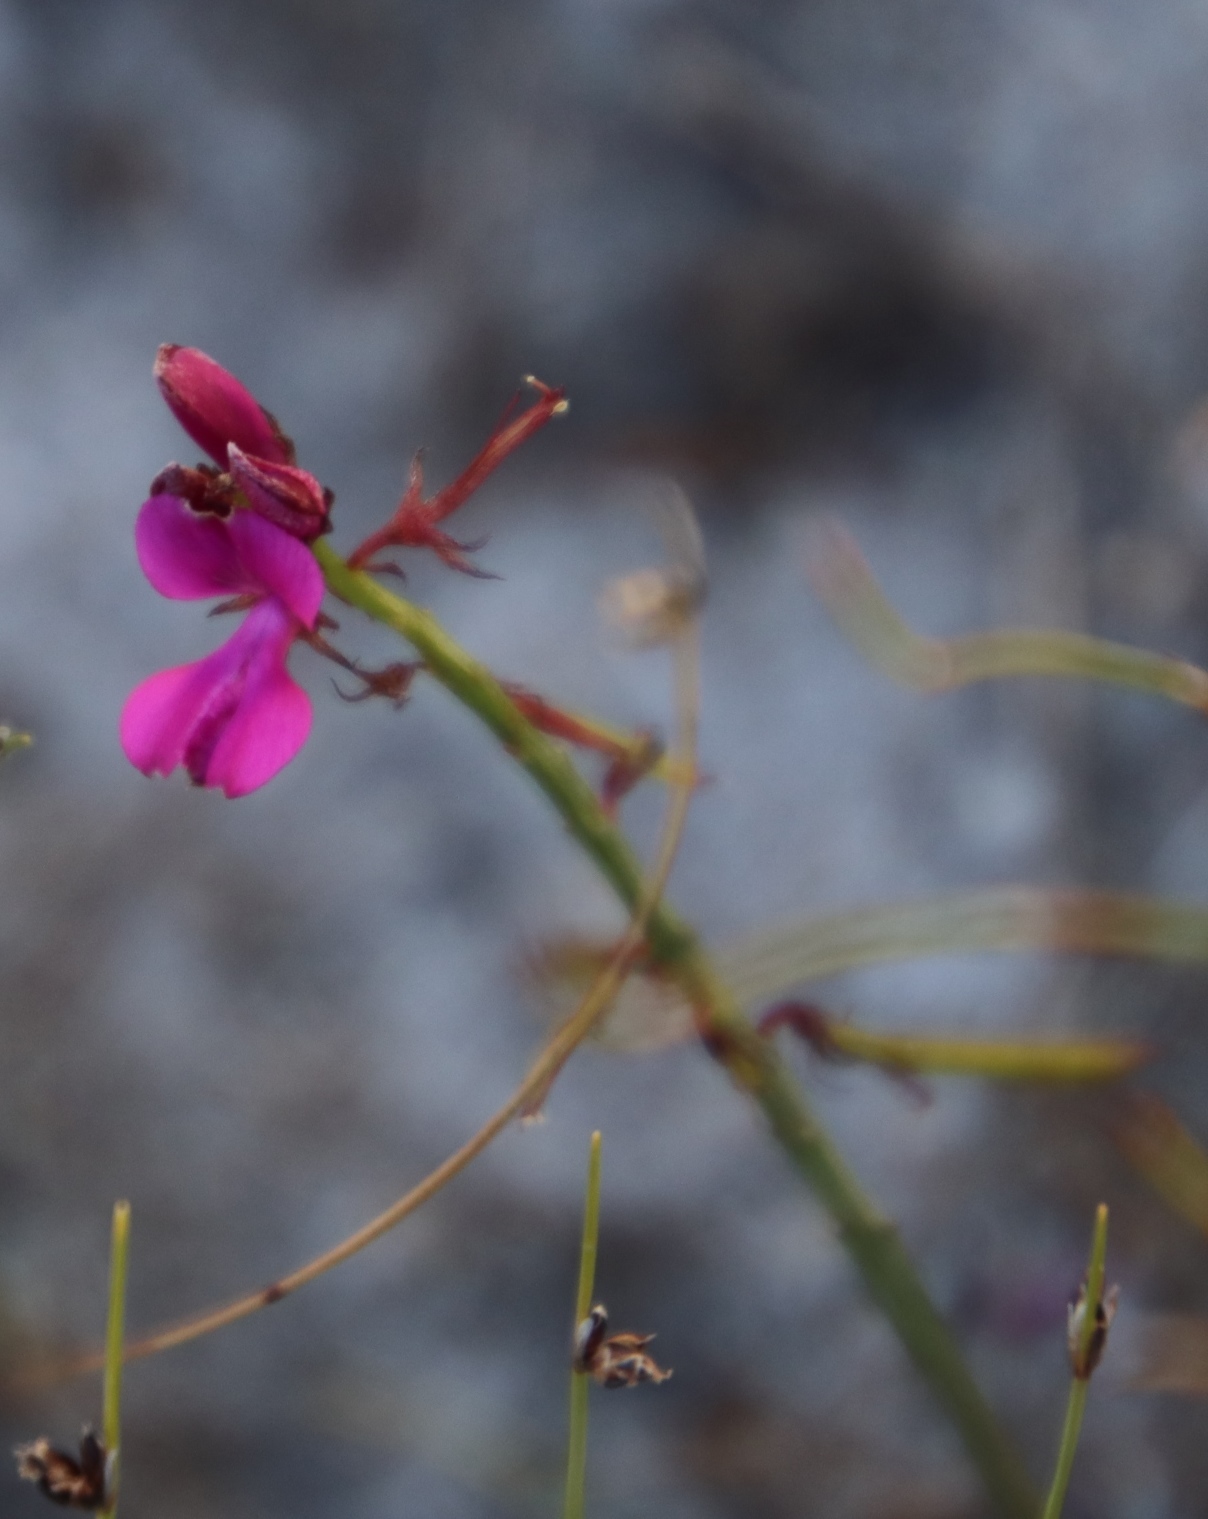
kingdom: Plantae
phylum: Tracheophyta
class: Magnoliopsida
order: Fabales
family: Fabaceae
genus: Indigofera
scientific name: Indigofera capillaris
